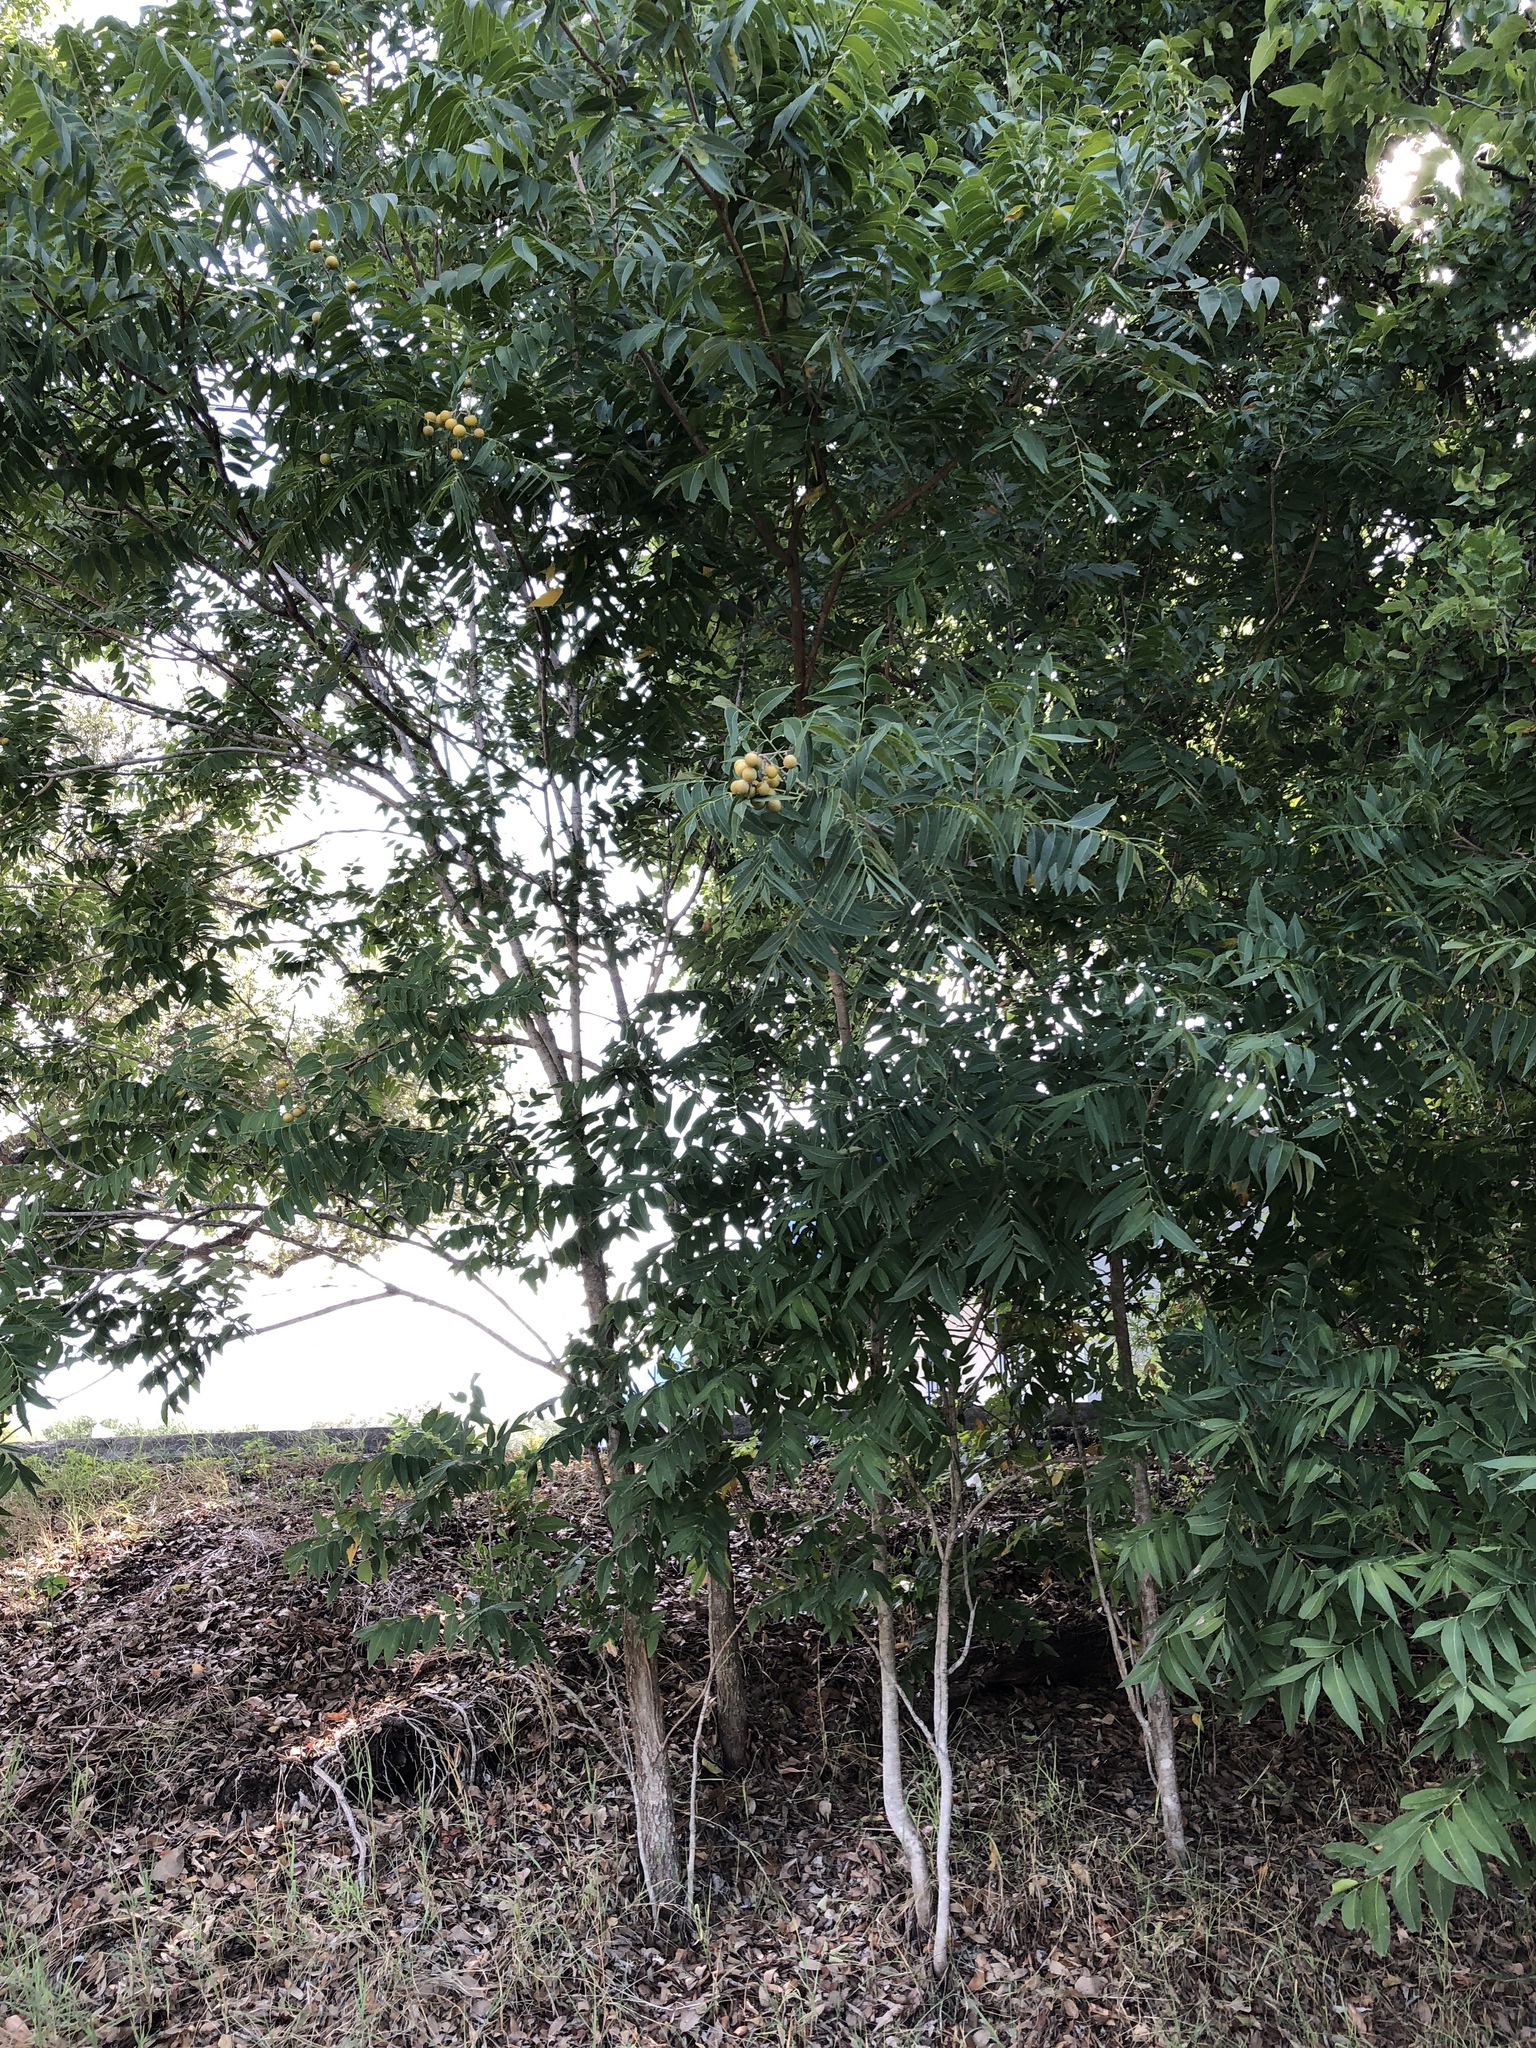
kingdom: Plantae
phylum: Tracheophyta
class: Magnoliopsida
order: Sapindales
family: Sapindaceae
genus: Sapindus
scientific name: Sapindus drummondii
